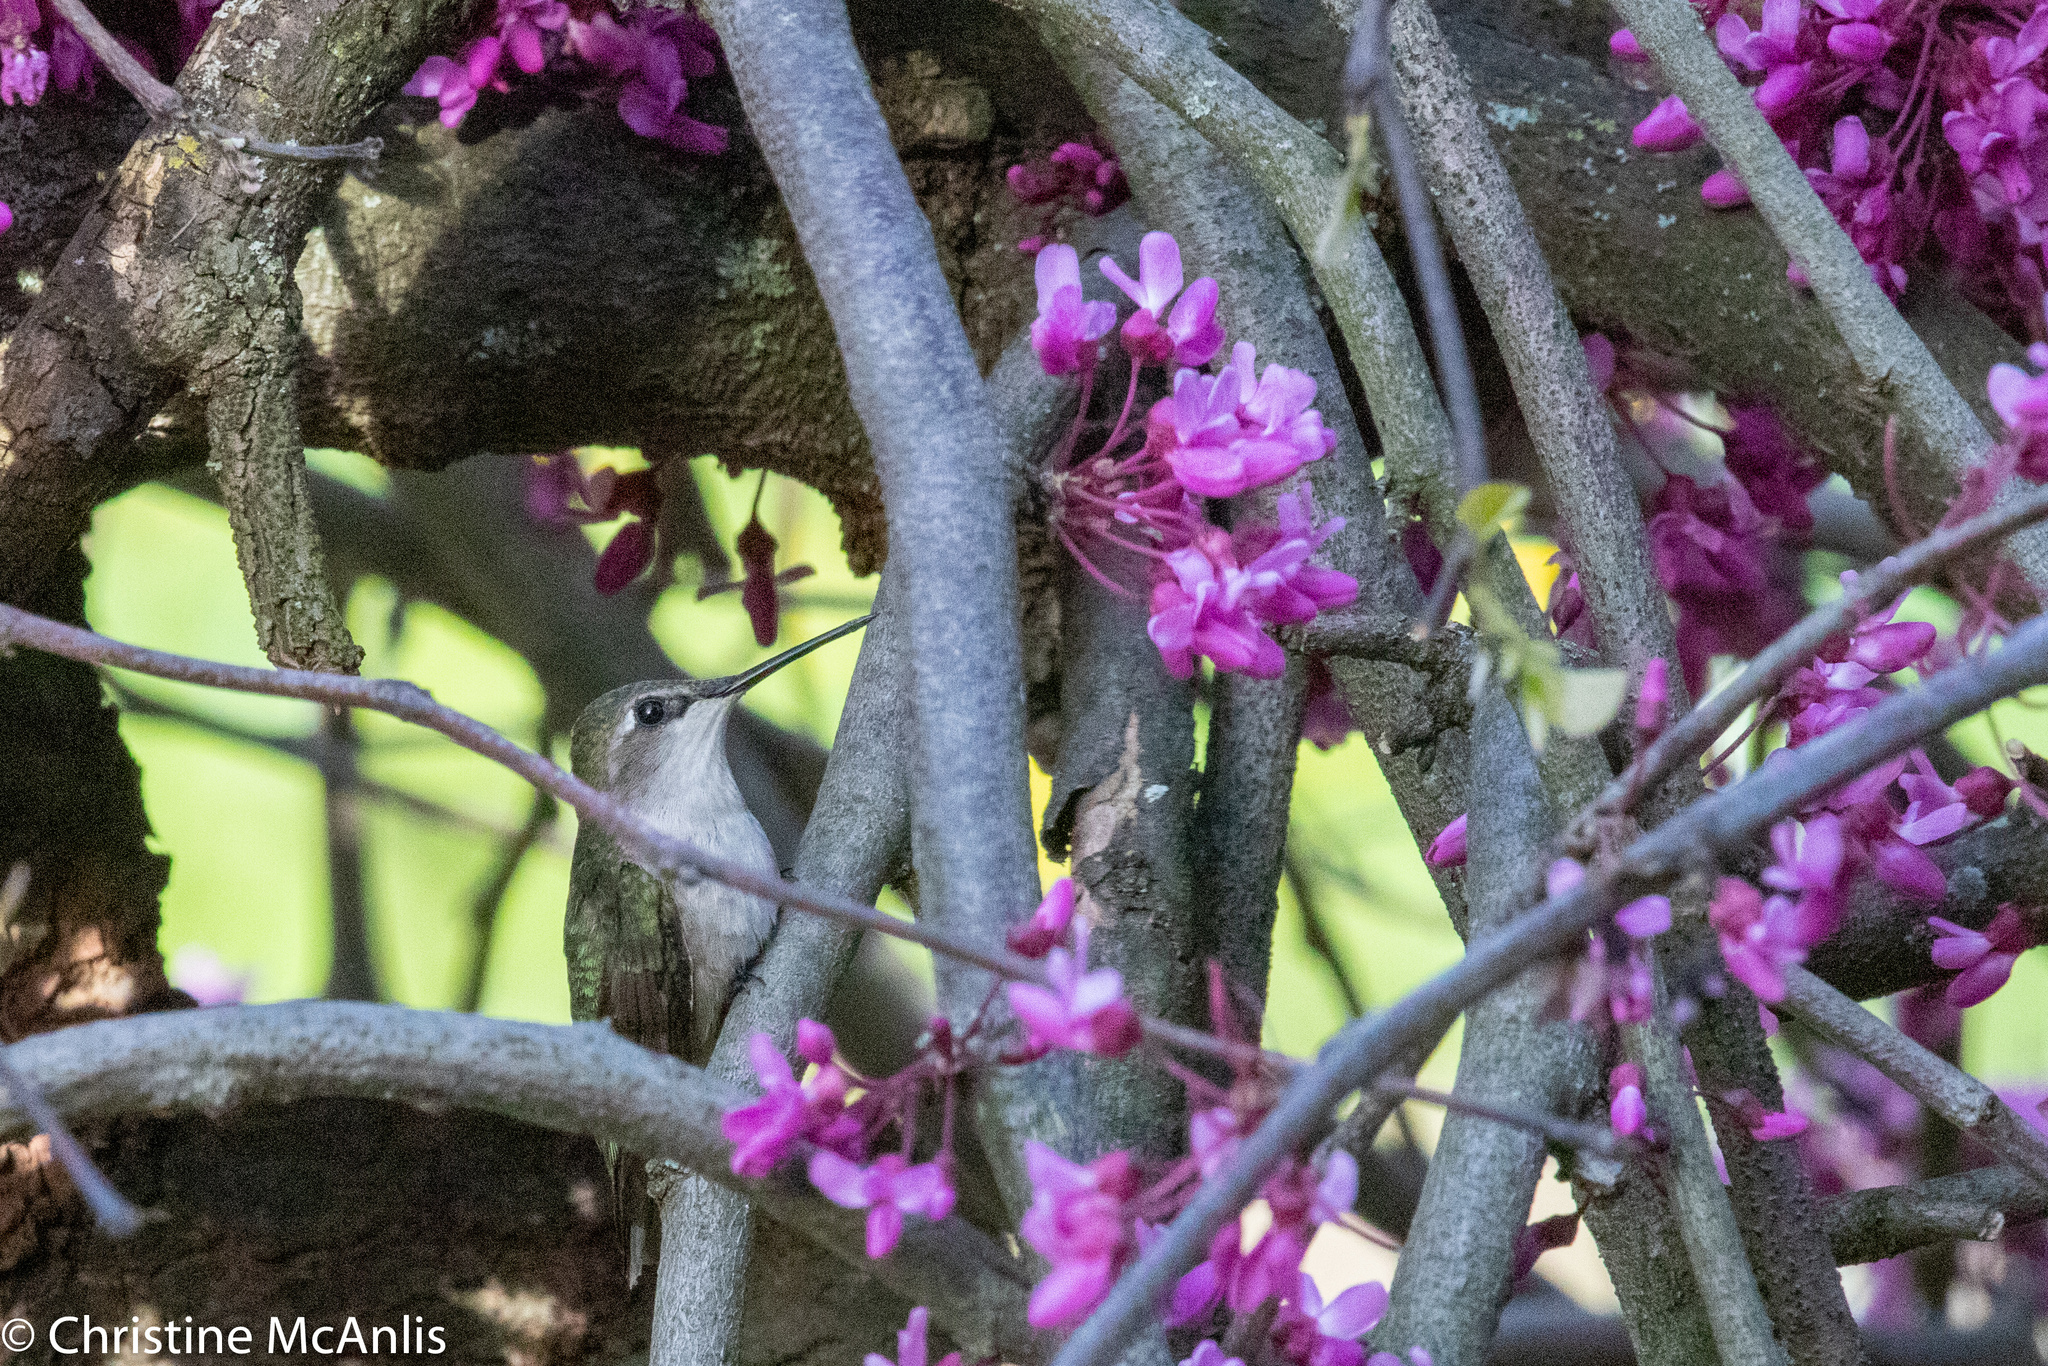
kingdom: Animalia
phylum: Chordata
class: Aves
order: Apodiformes
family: Trochilidae
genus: Archilochus
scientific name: Archilochus colubris
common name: Ruby-throated hummingbird
